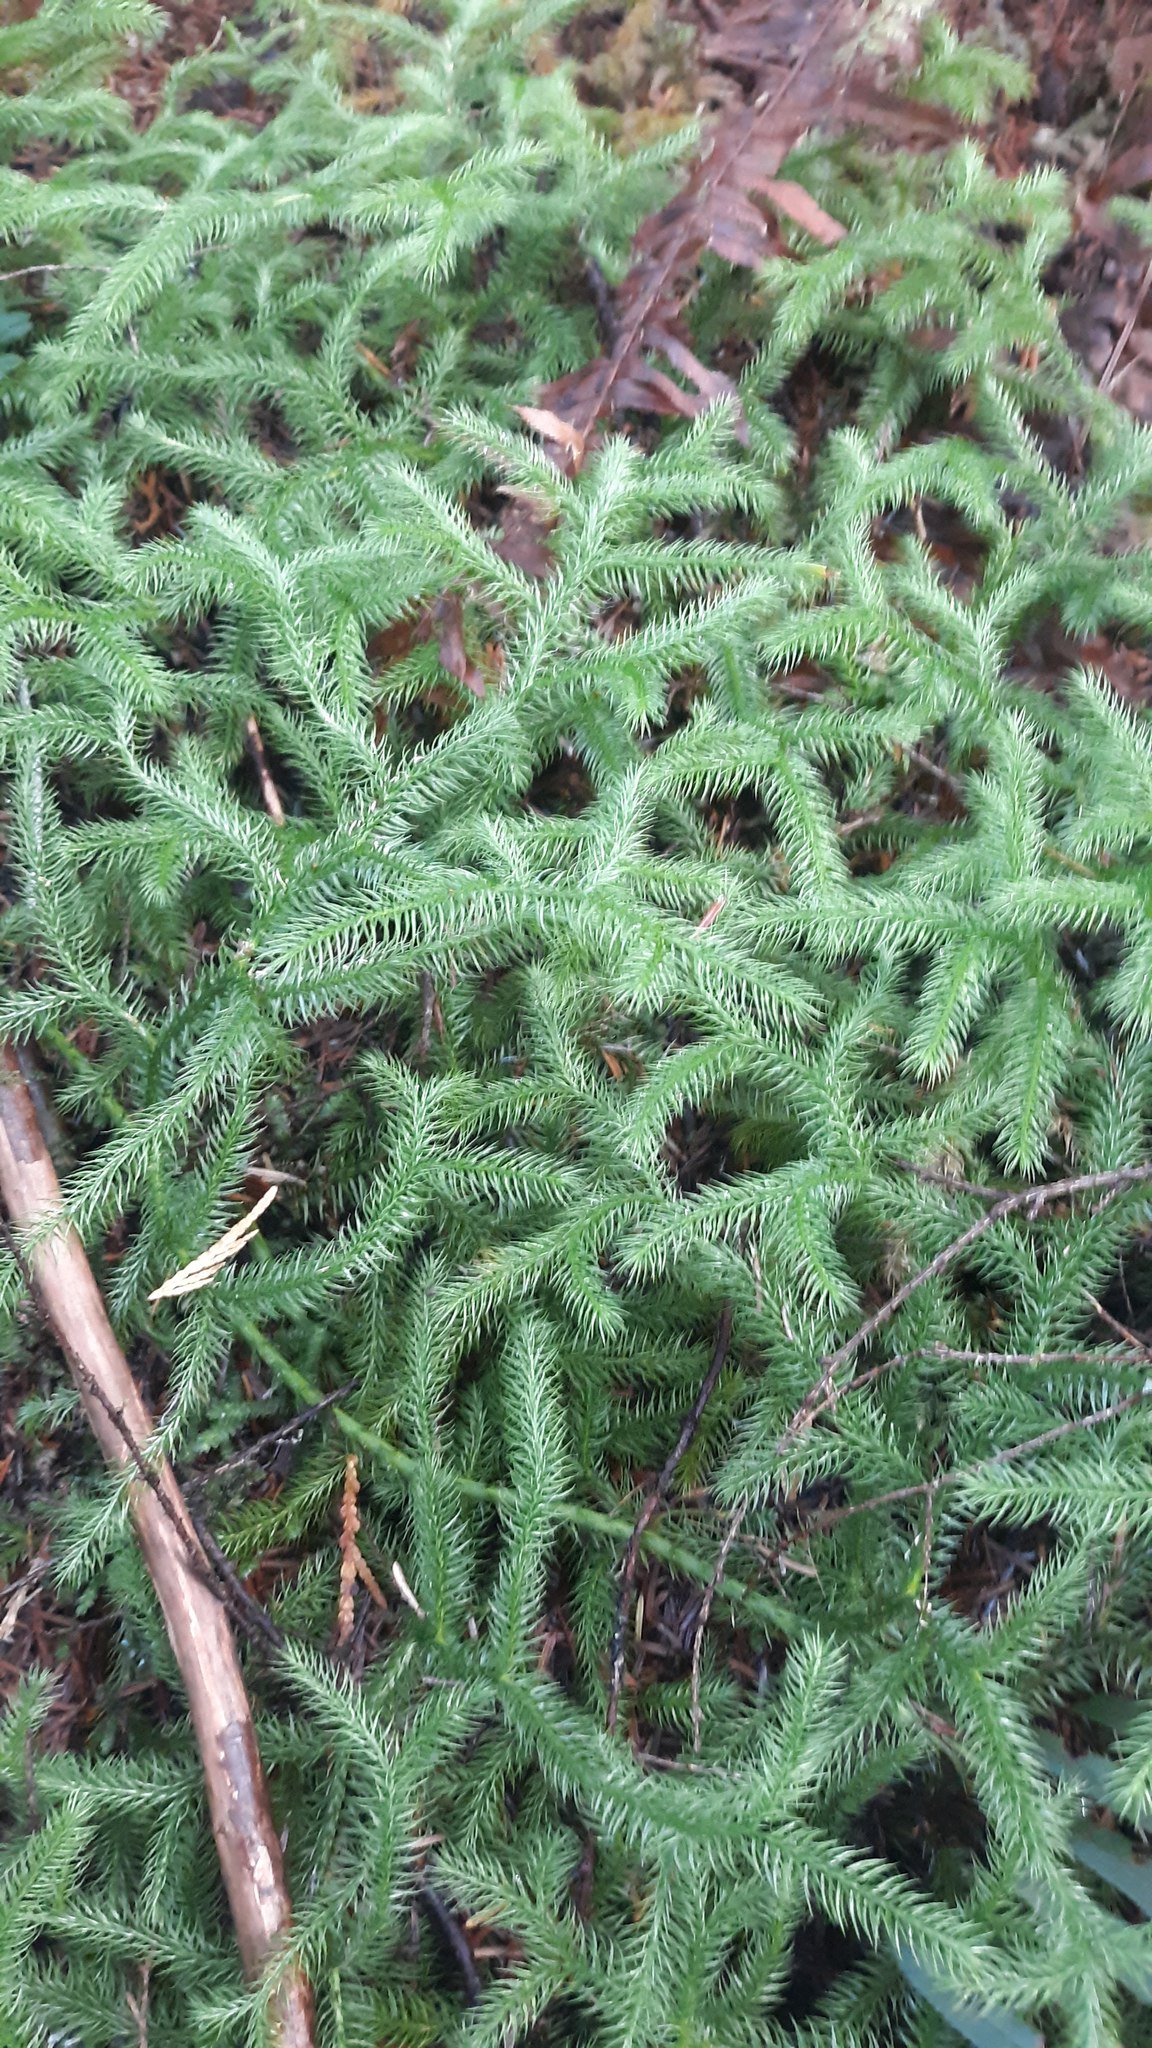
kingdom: Plantae
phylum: Tracheophyta
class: Lycopodiopsida
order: Lycopodiales
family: Lycopodiaceae
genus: Lycopodium
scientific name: Lycopodium clavatum
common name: Stag's-horn clubmoss
